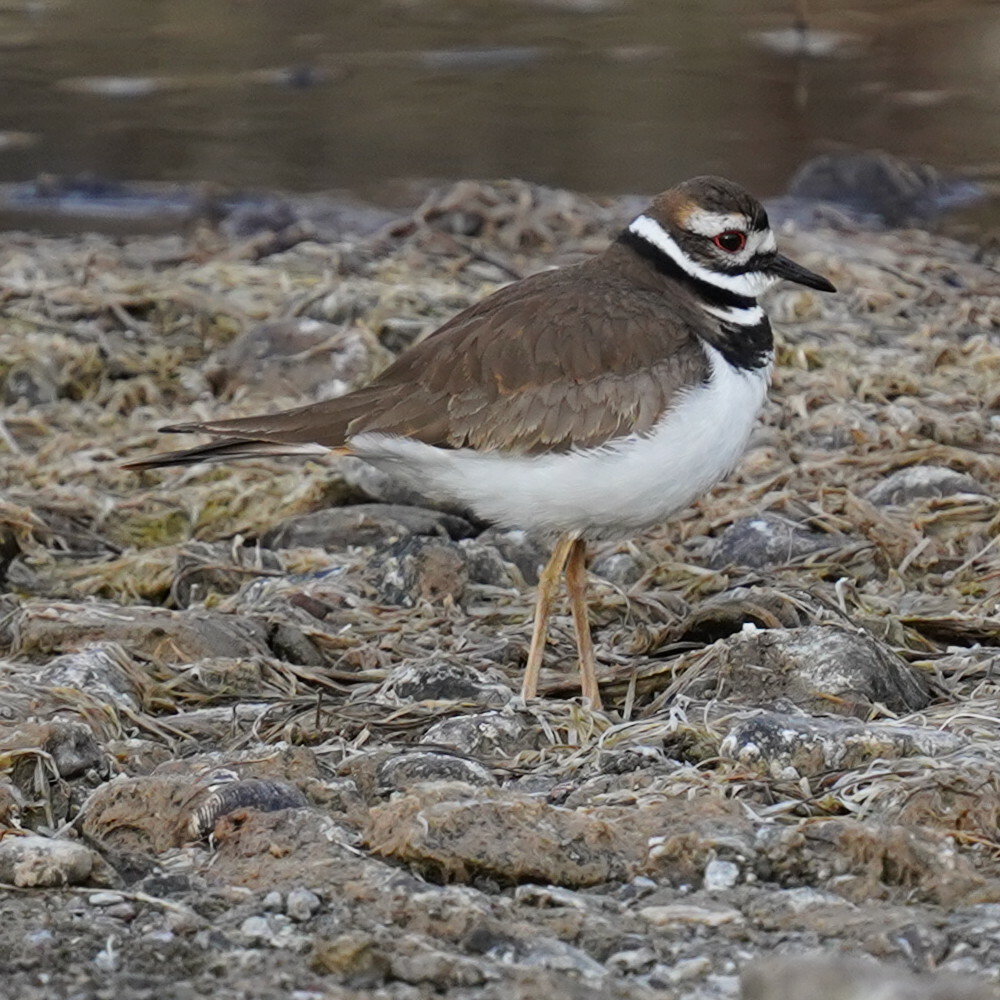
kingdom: Animalia
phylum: Chordata
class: Aves
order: Charadriiformes
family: Charadriidae
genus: Charadrius
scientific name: Charadrius vociferus
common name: Killdeer
